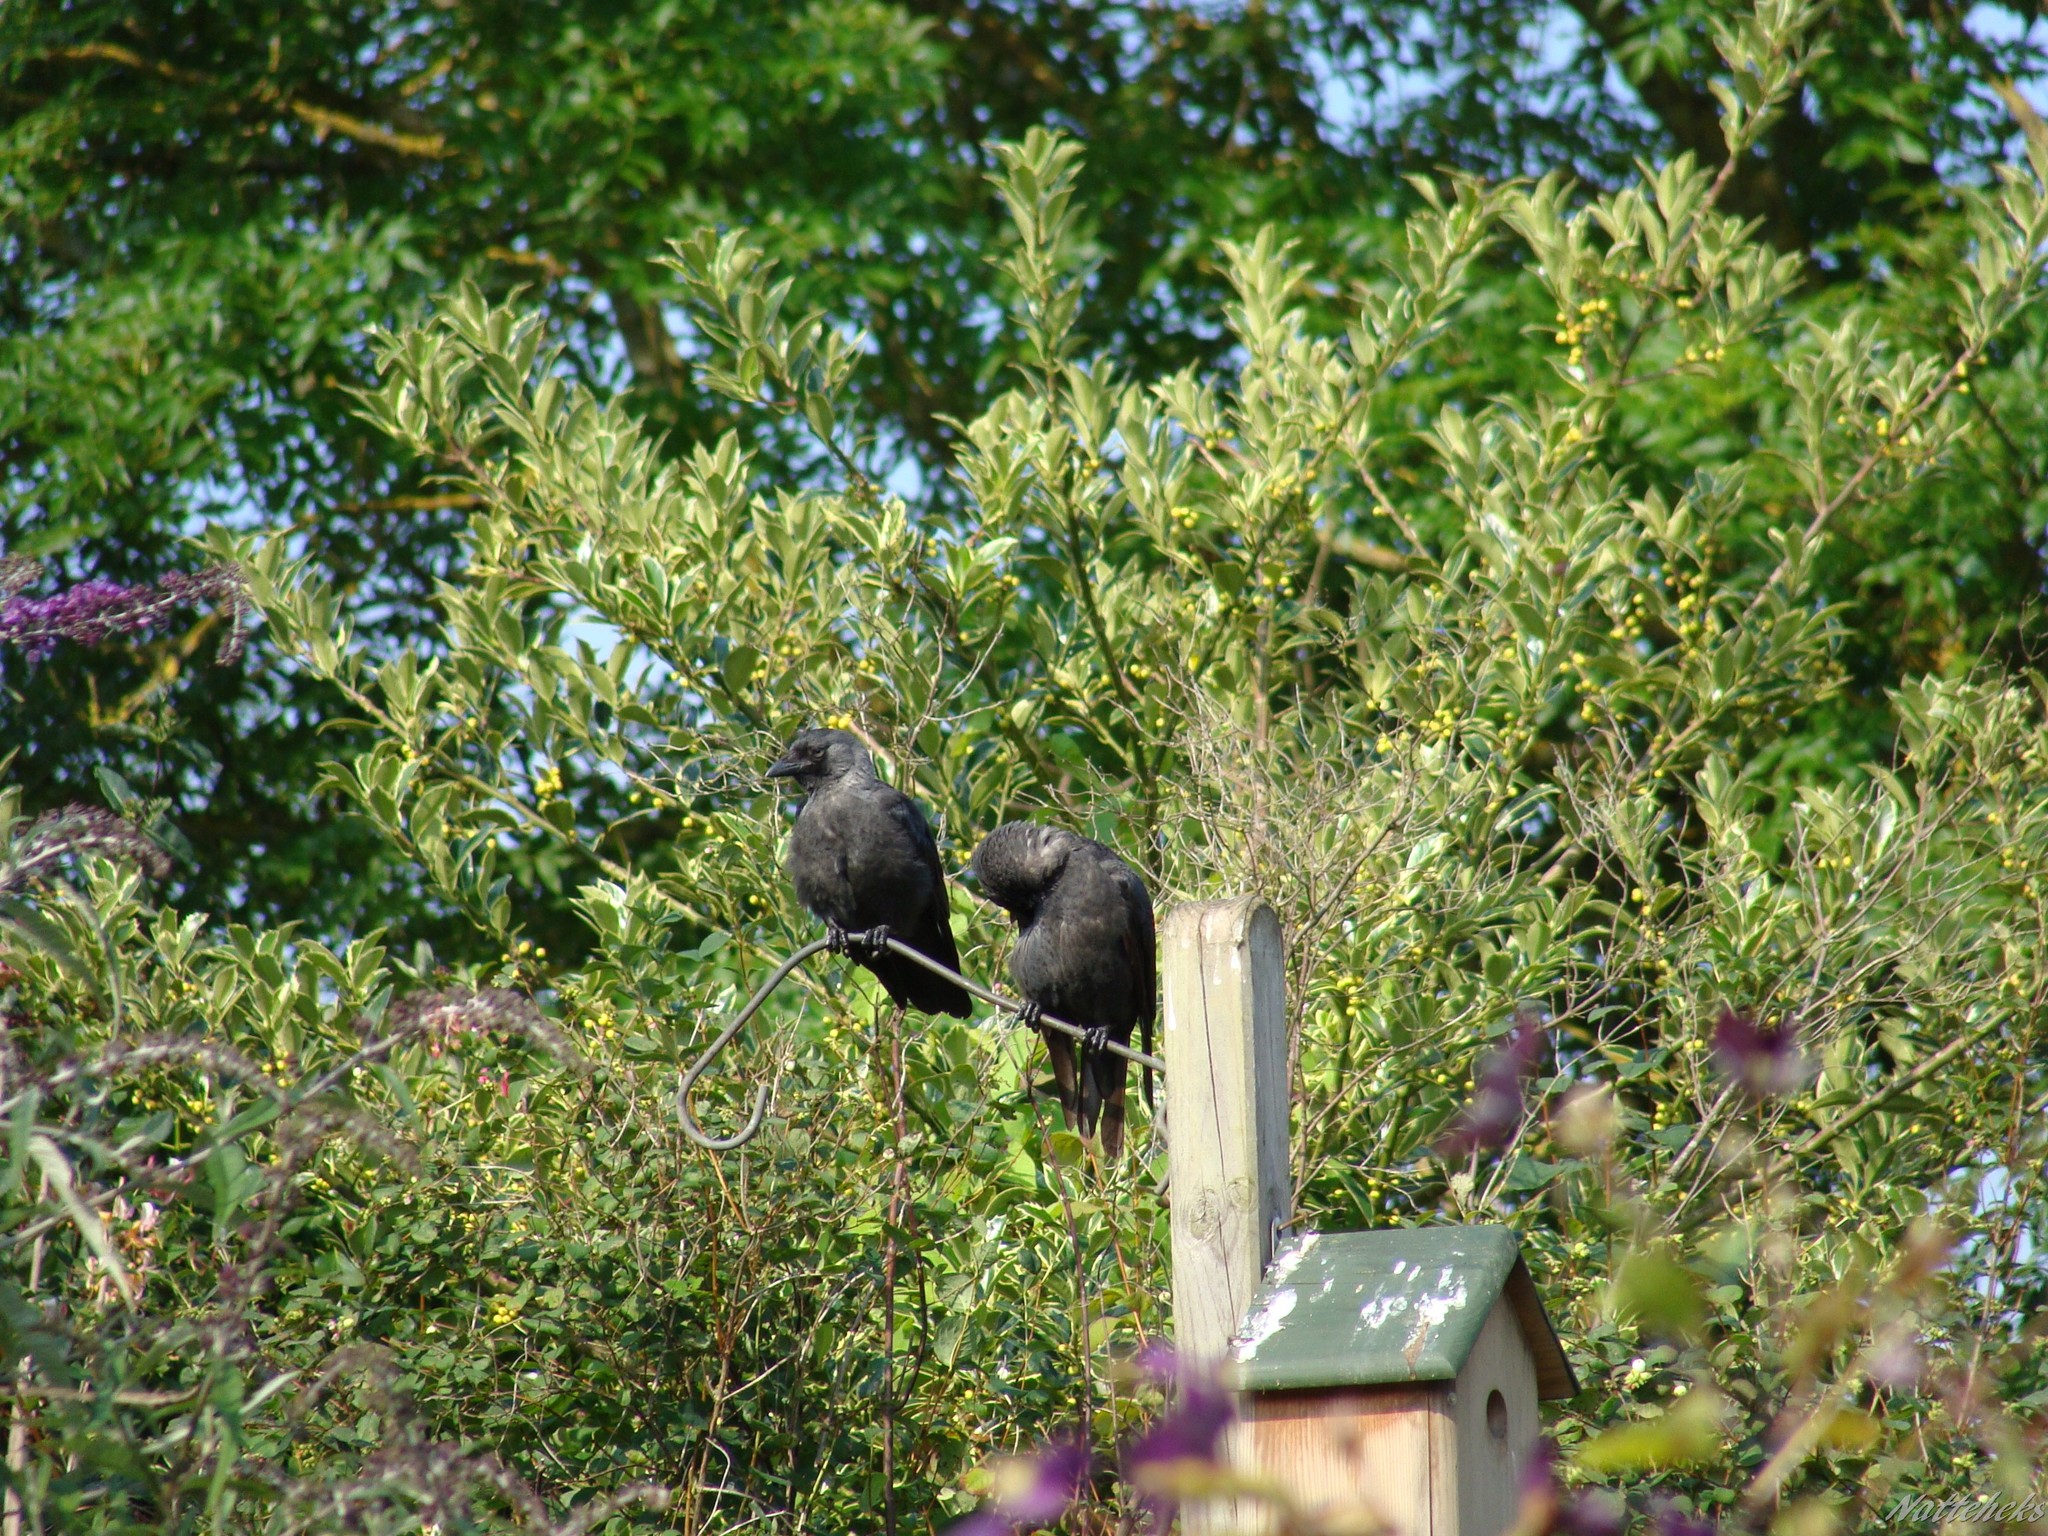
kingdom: Animalia
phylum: Chordata
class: Aves
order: Passeriformes
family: Corvidae
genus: Coloeus
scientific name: Coloeus monedula
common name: Western jackdaw
